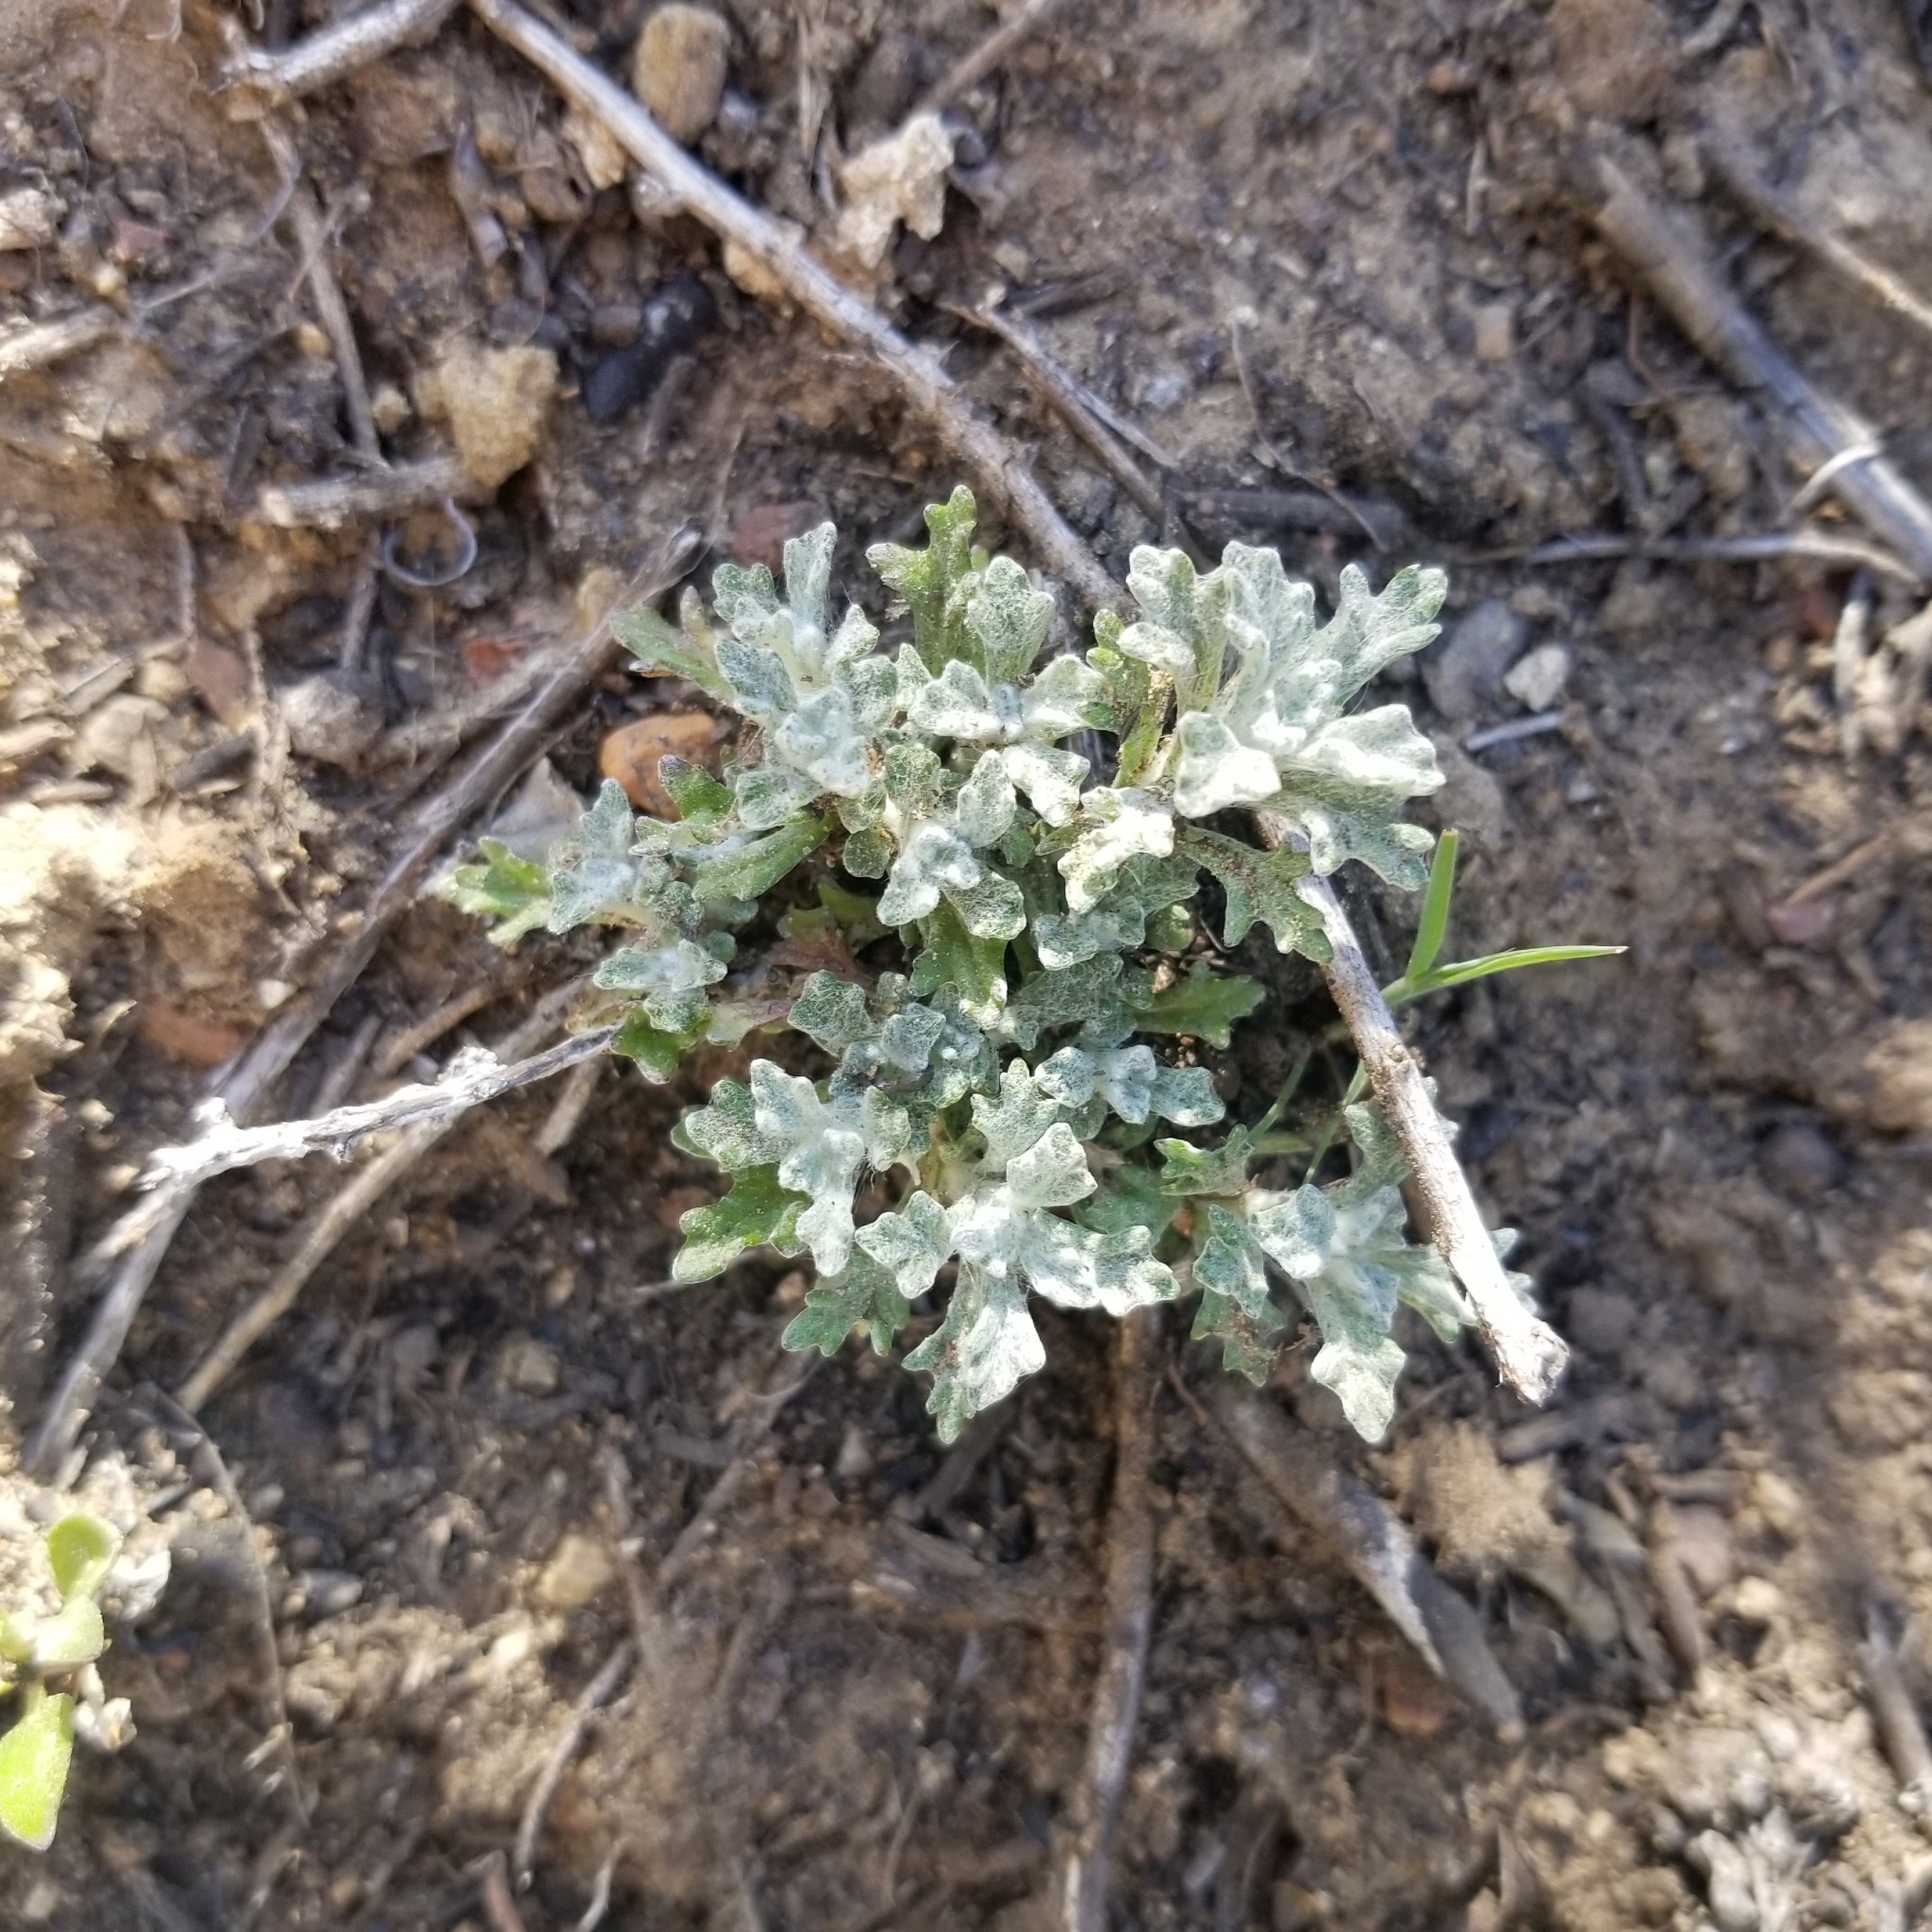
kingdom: Plantae
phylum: Tracheophyta
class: Magnoliopsida
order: Asterales
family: Asteraceae
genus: Eriophyllum
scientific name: Eriophyllum confertiflorum
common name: Golden-yarrow
